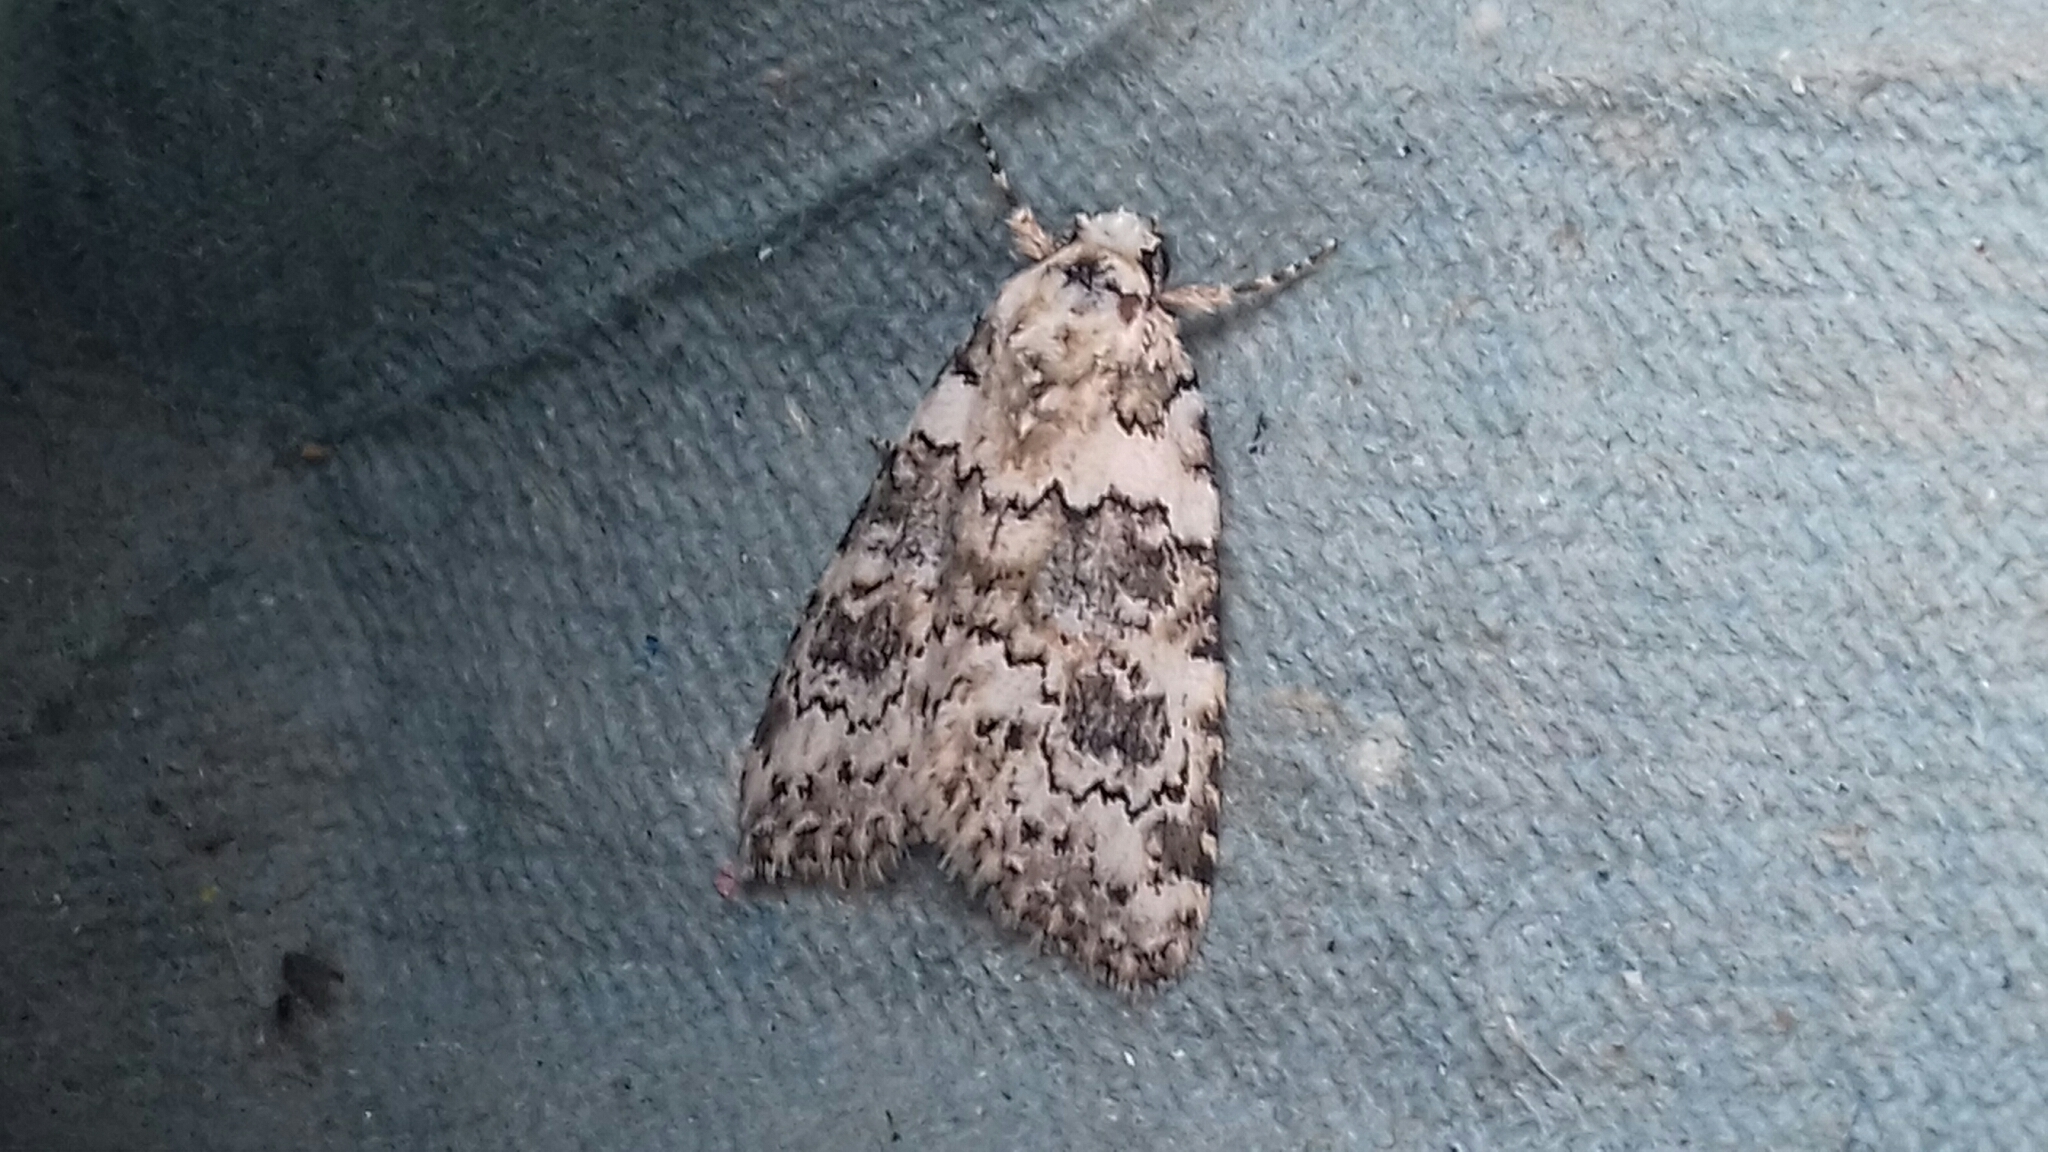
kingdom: Animalia
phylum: Arthropoda
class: Insecta
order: Lepidoptera
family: Noctuidae
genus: Bryophila
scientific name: Bryophila domestica
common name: Marbled beauty
